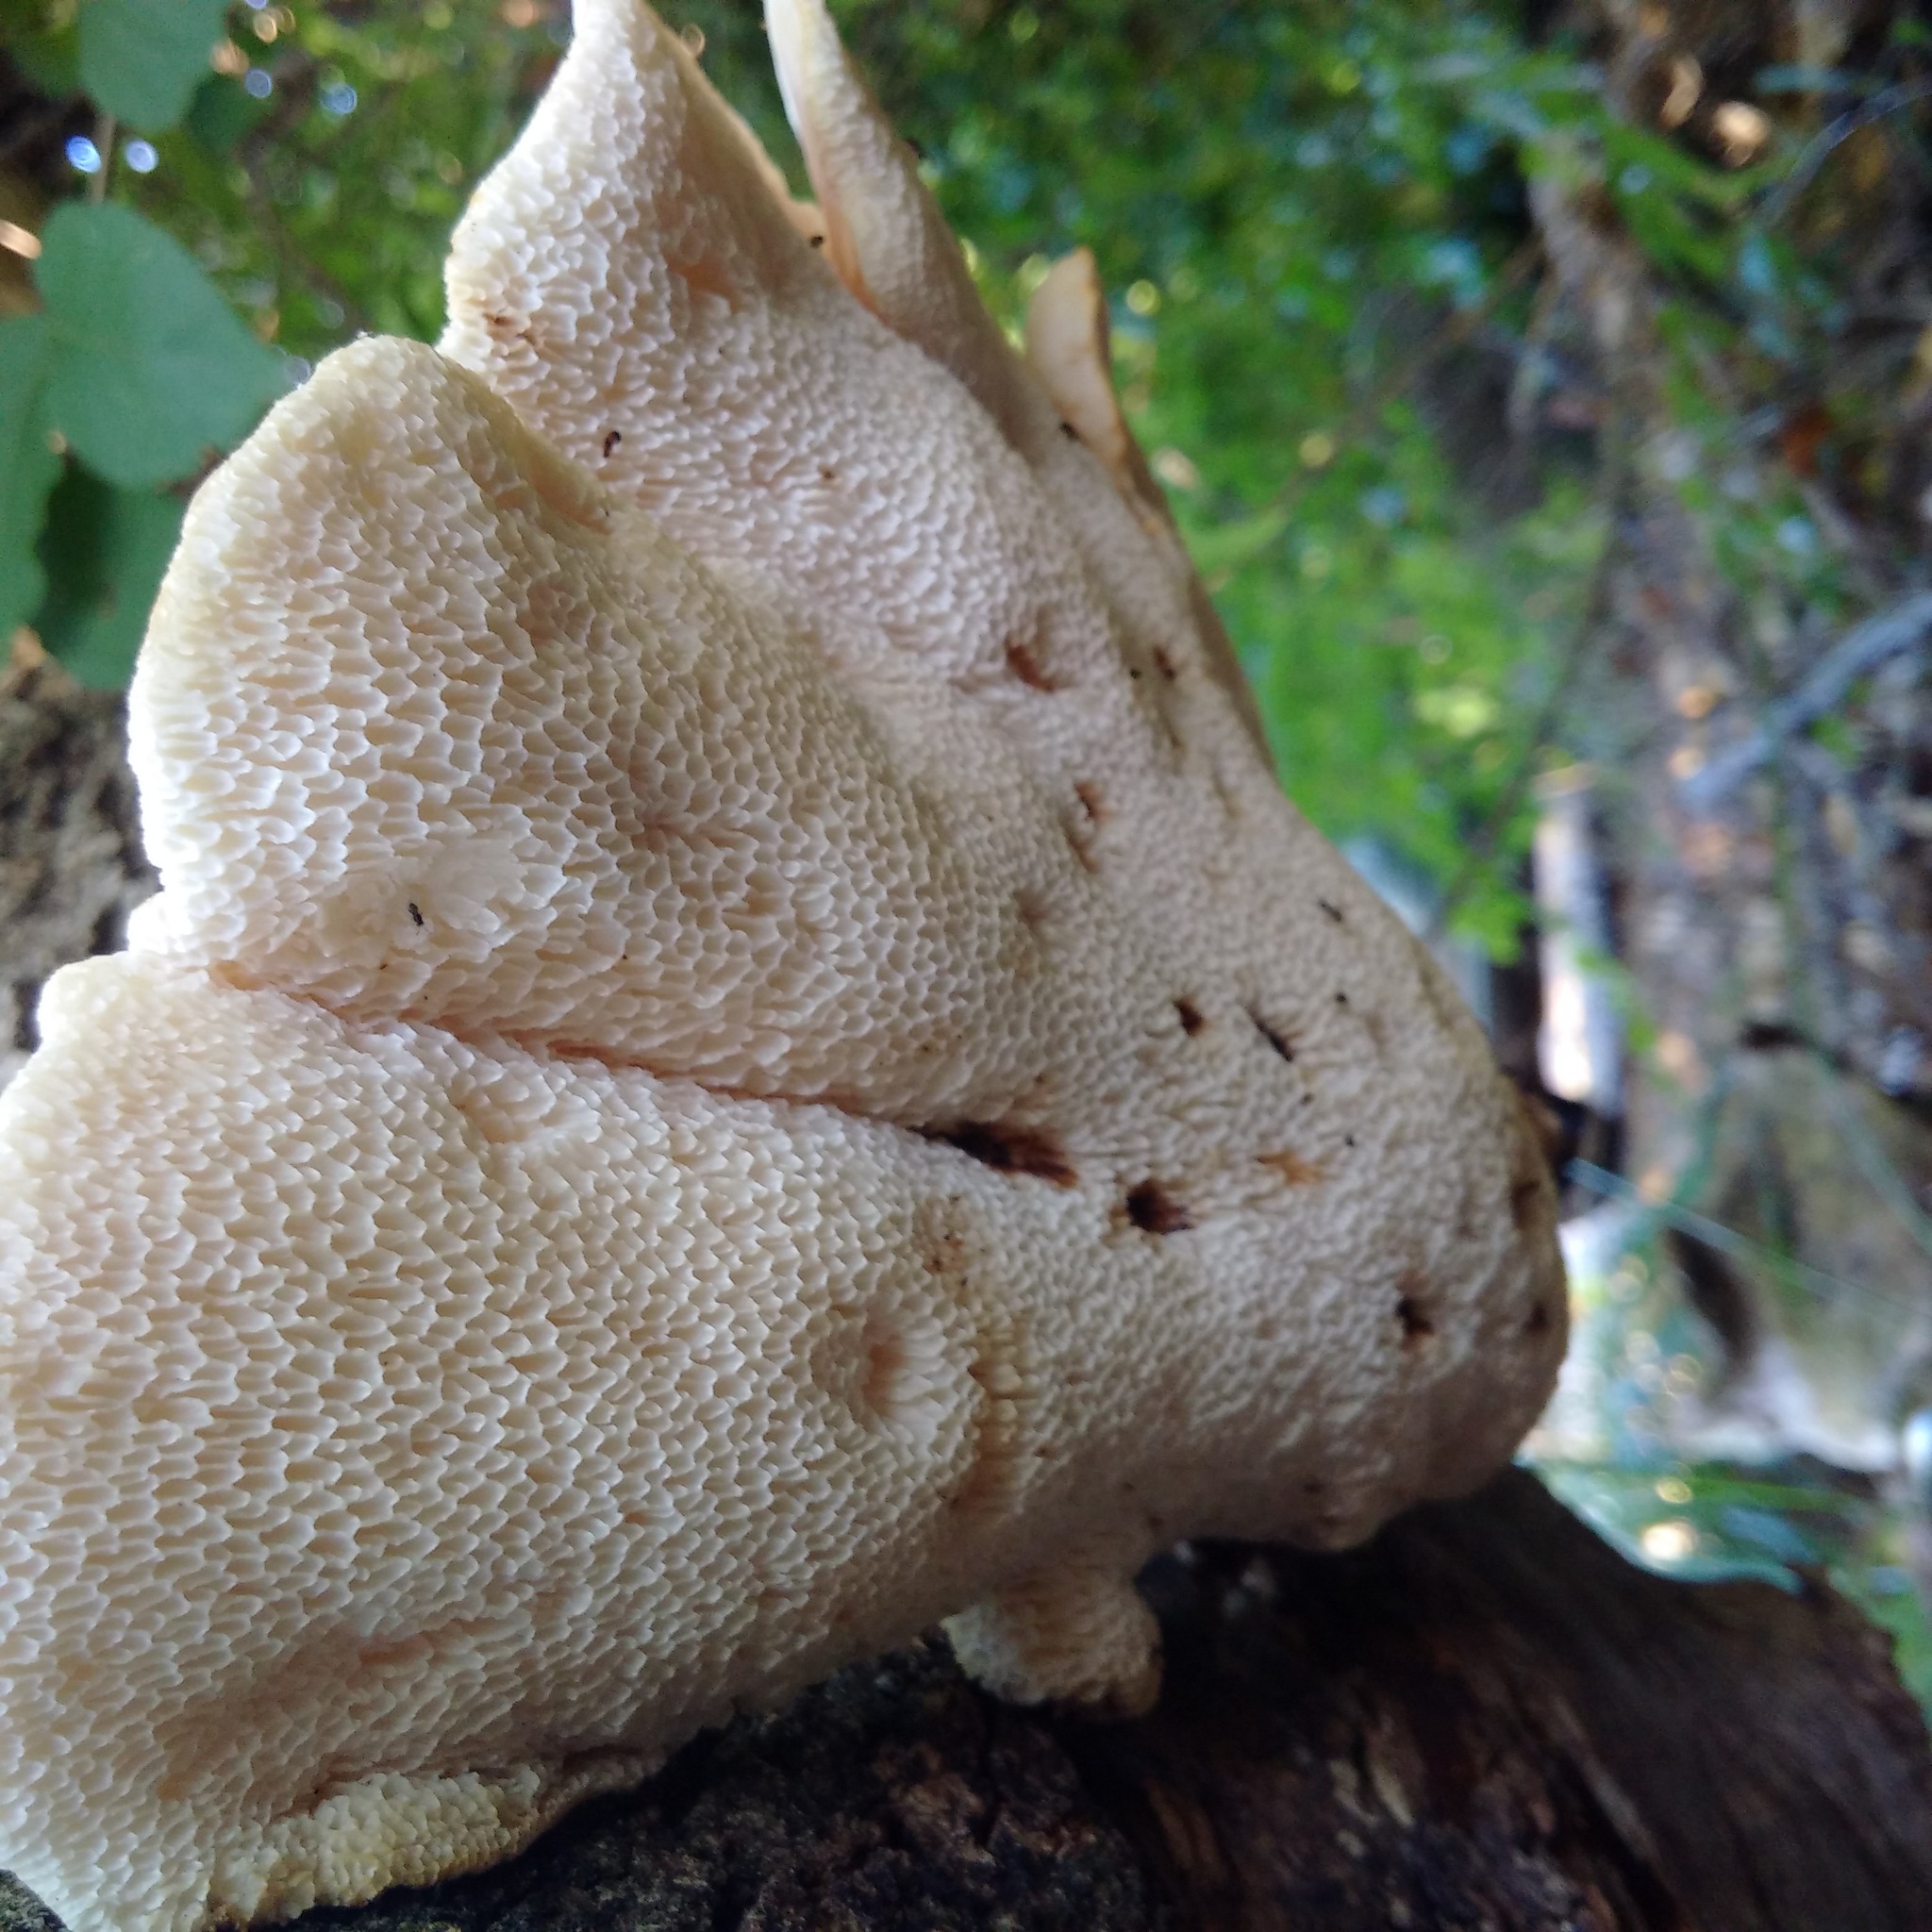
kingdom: Fungi
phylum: Basidiomycota
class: Agaricomycetes
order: Polyporales
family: Polyporaceae
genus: Cerioporus
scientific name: Cerioporus squamosus
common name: Dryad's saddle
